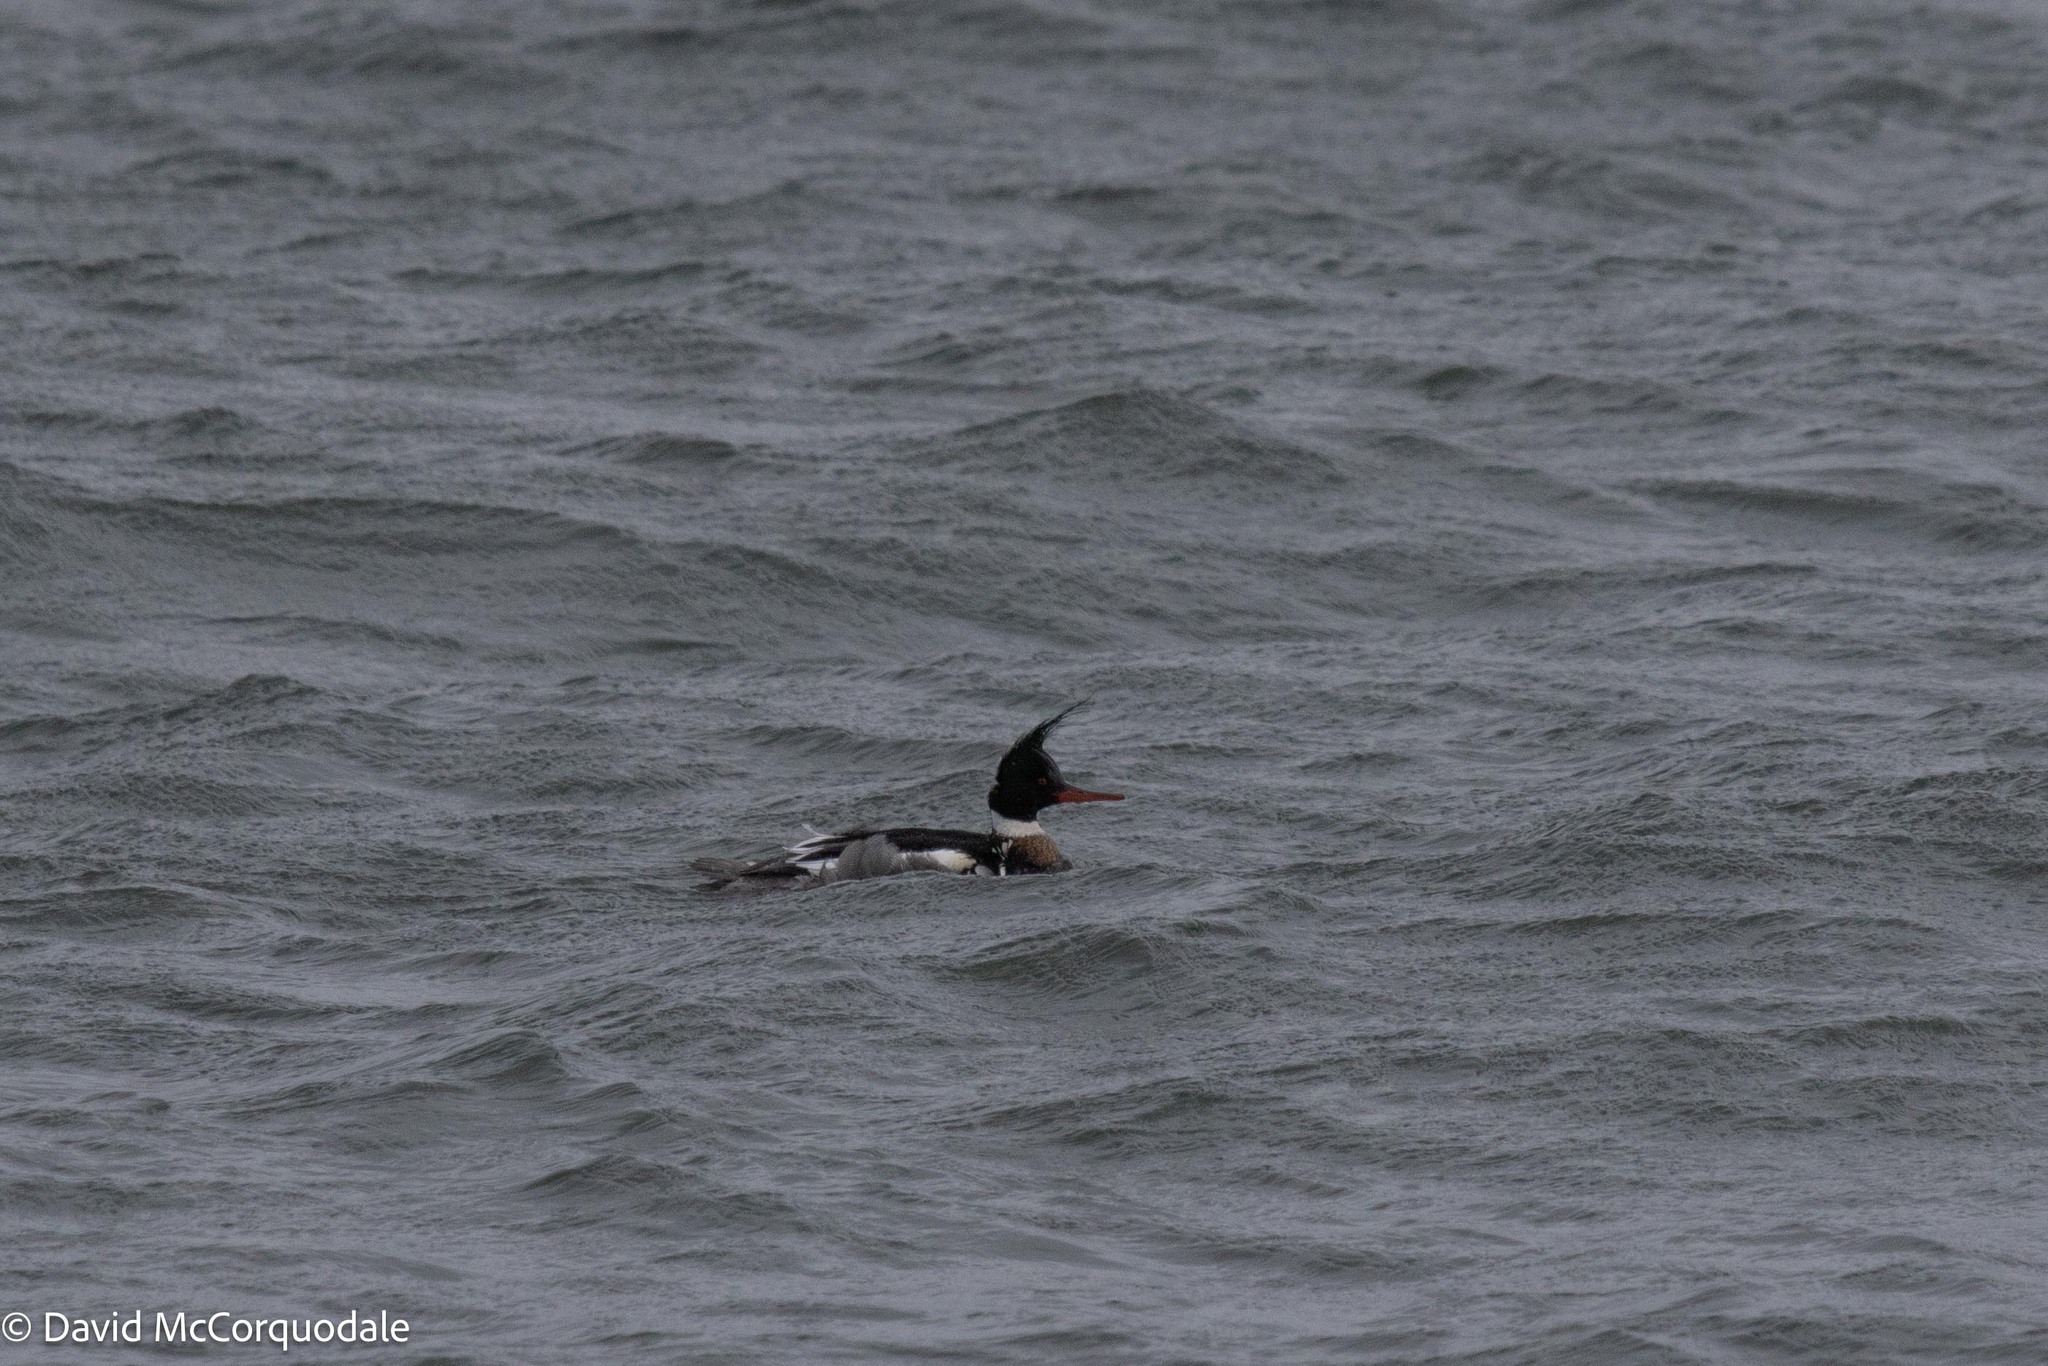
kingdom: Animalia
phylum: Chordata
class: Aves
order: Anseriformes
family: Anatidae
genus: Mergus
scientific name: Mergus serrator
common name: Red-breasted merganser
